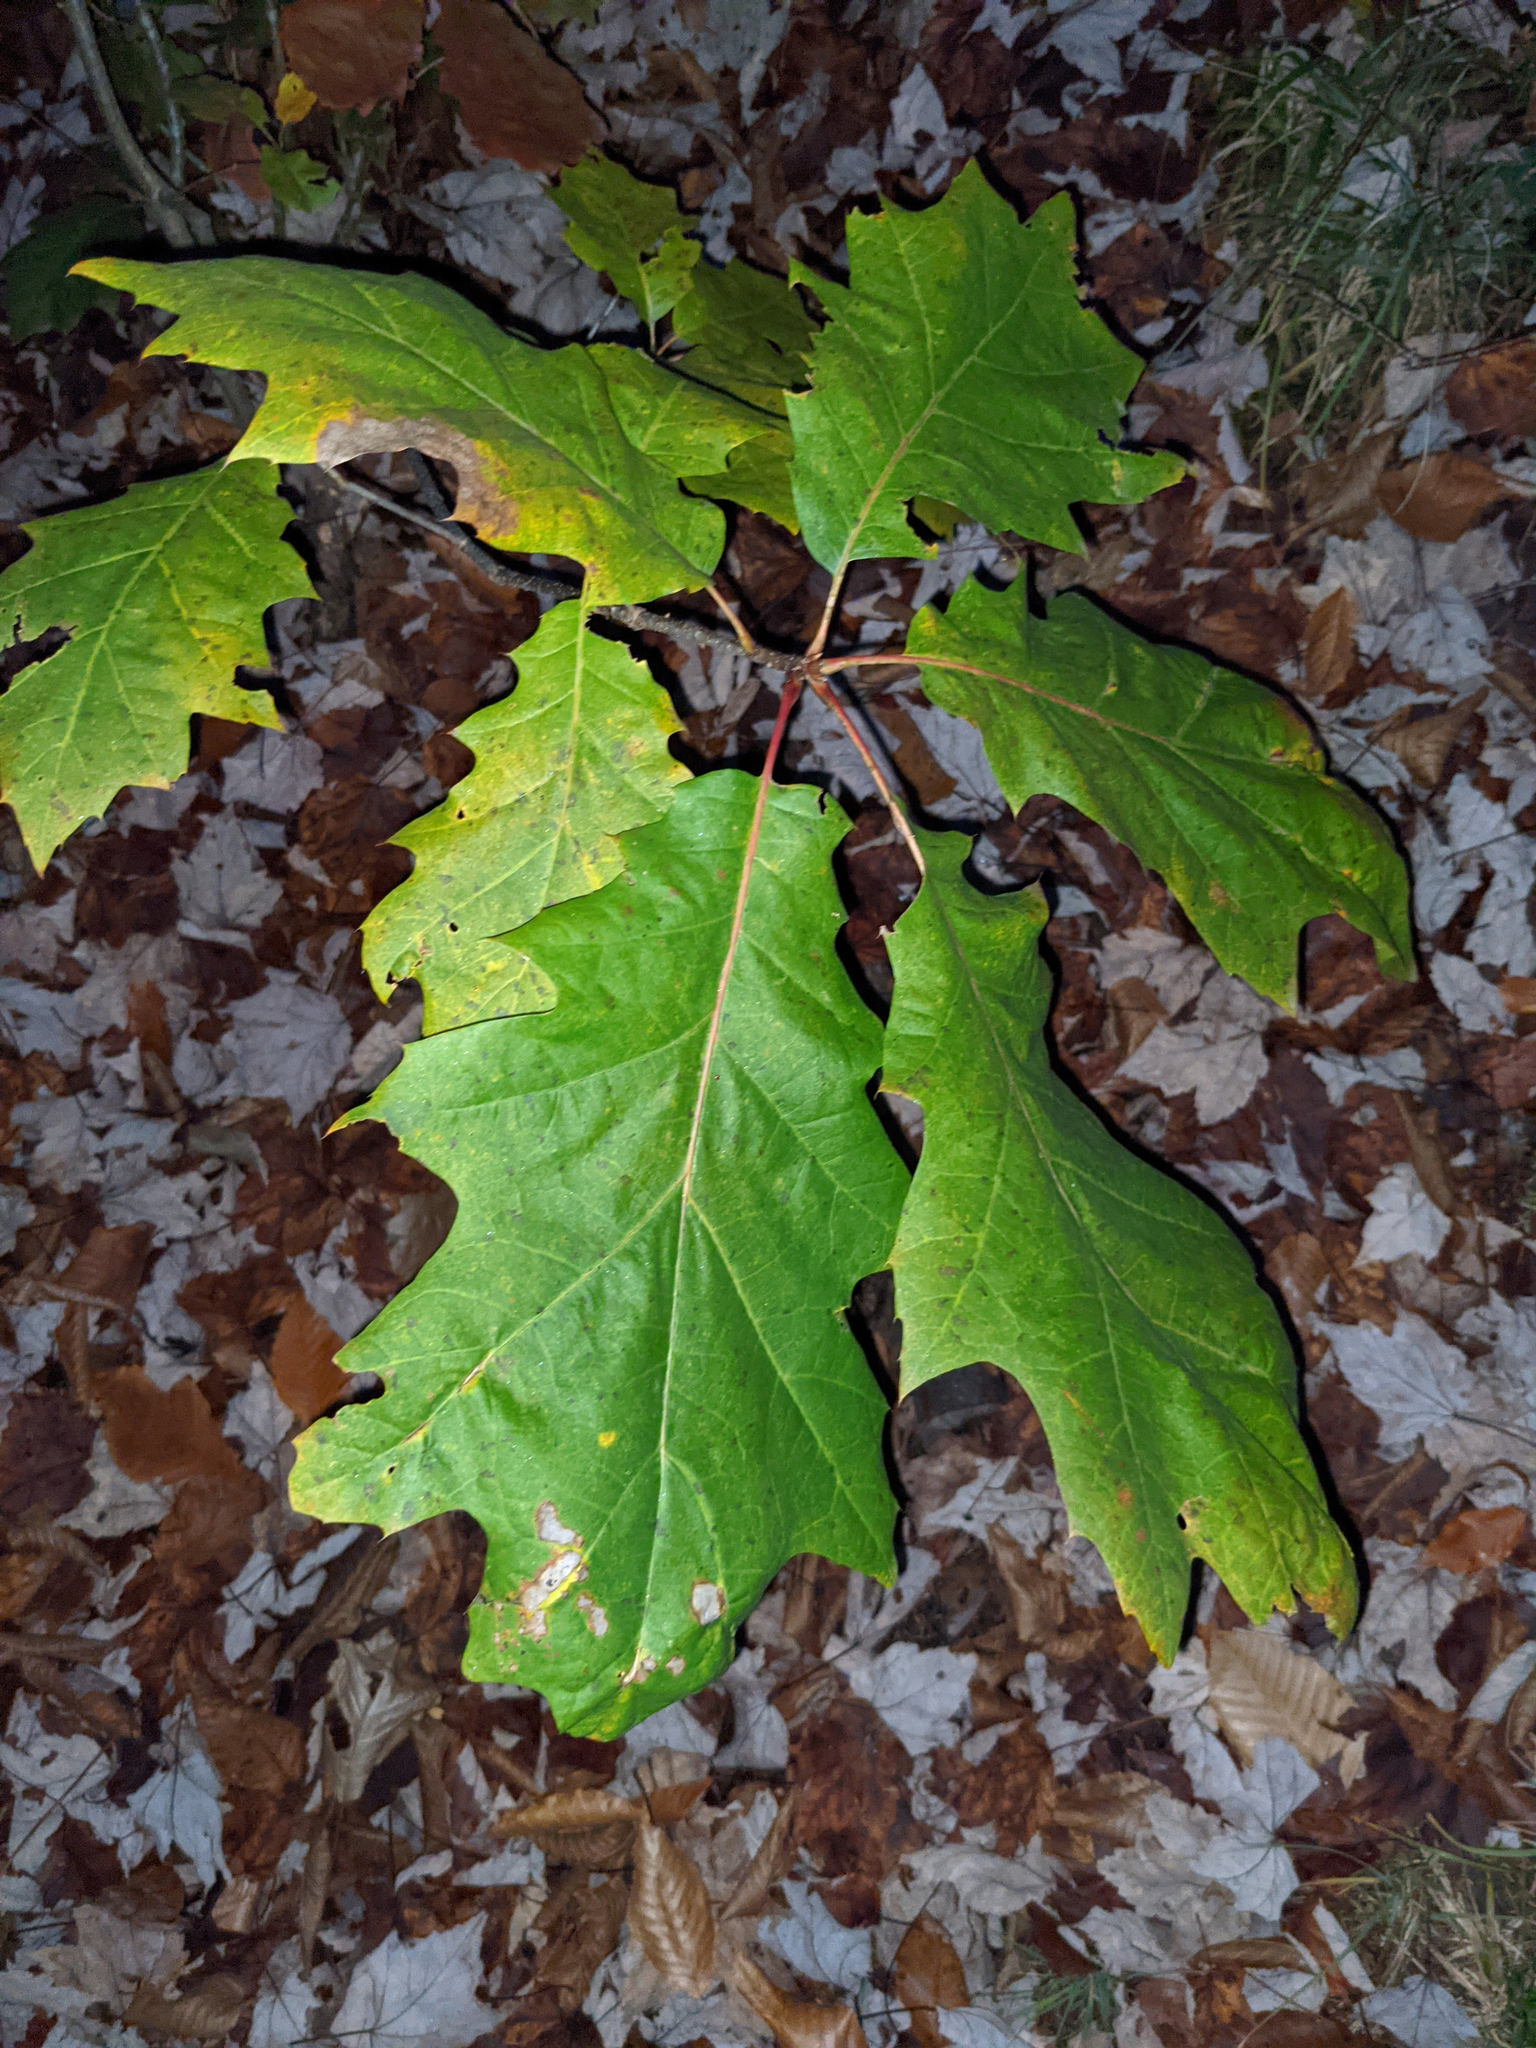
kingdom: Plantae
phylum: Tracheophyta
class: Magnoliopsida
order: Fagales
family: Fagaceae
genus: Quercus
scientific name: Quercus rubra
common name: Red oak
